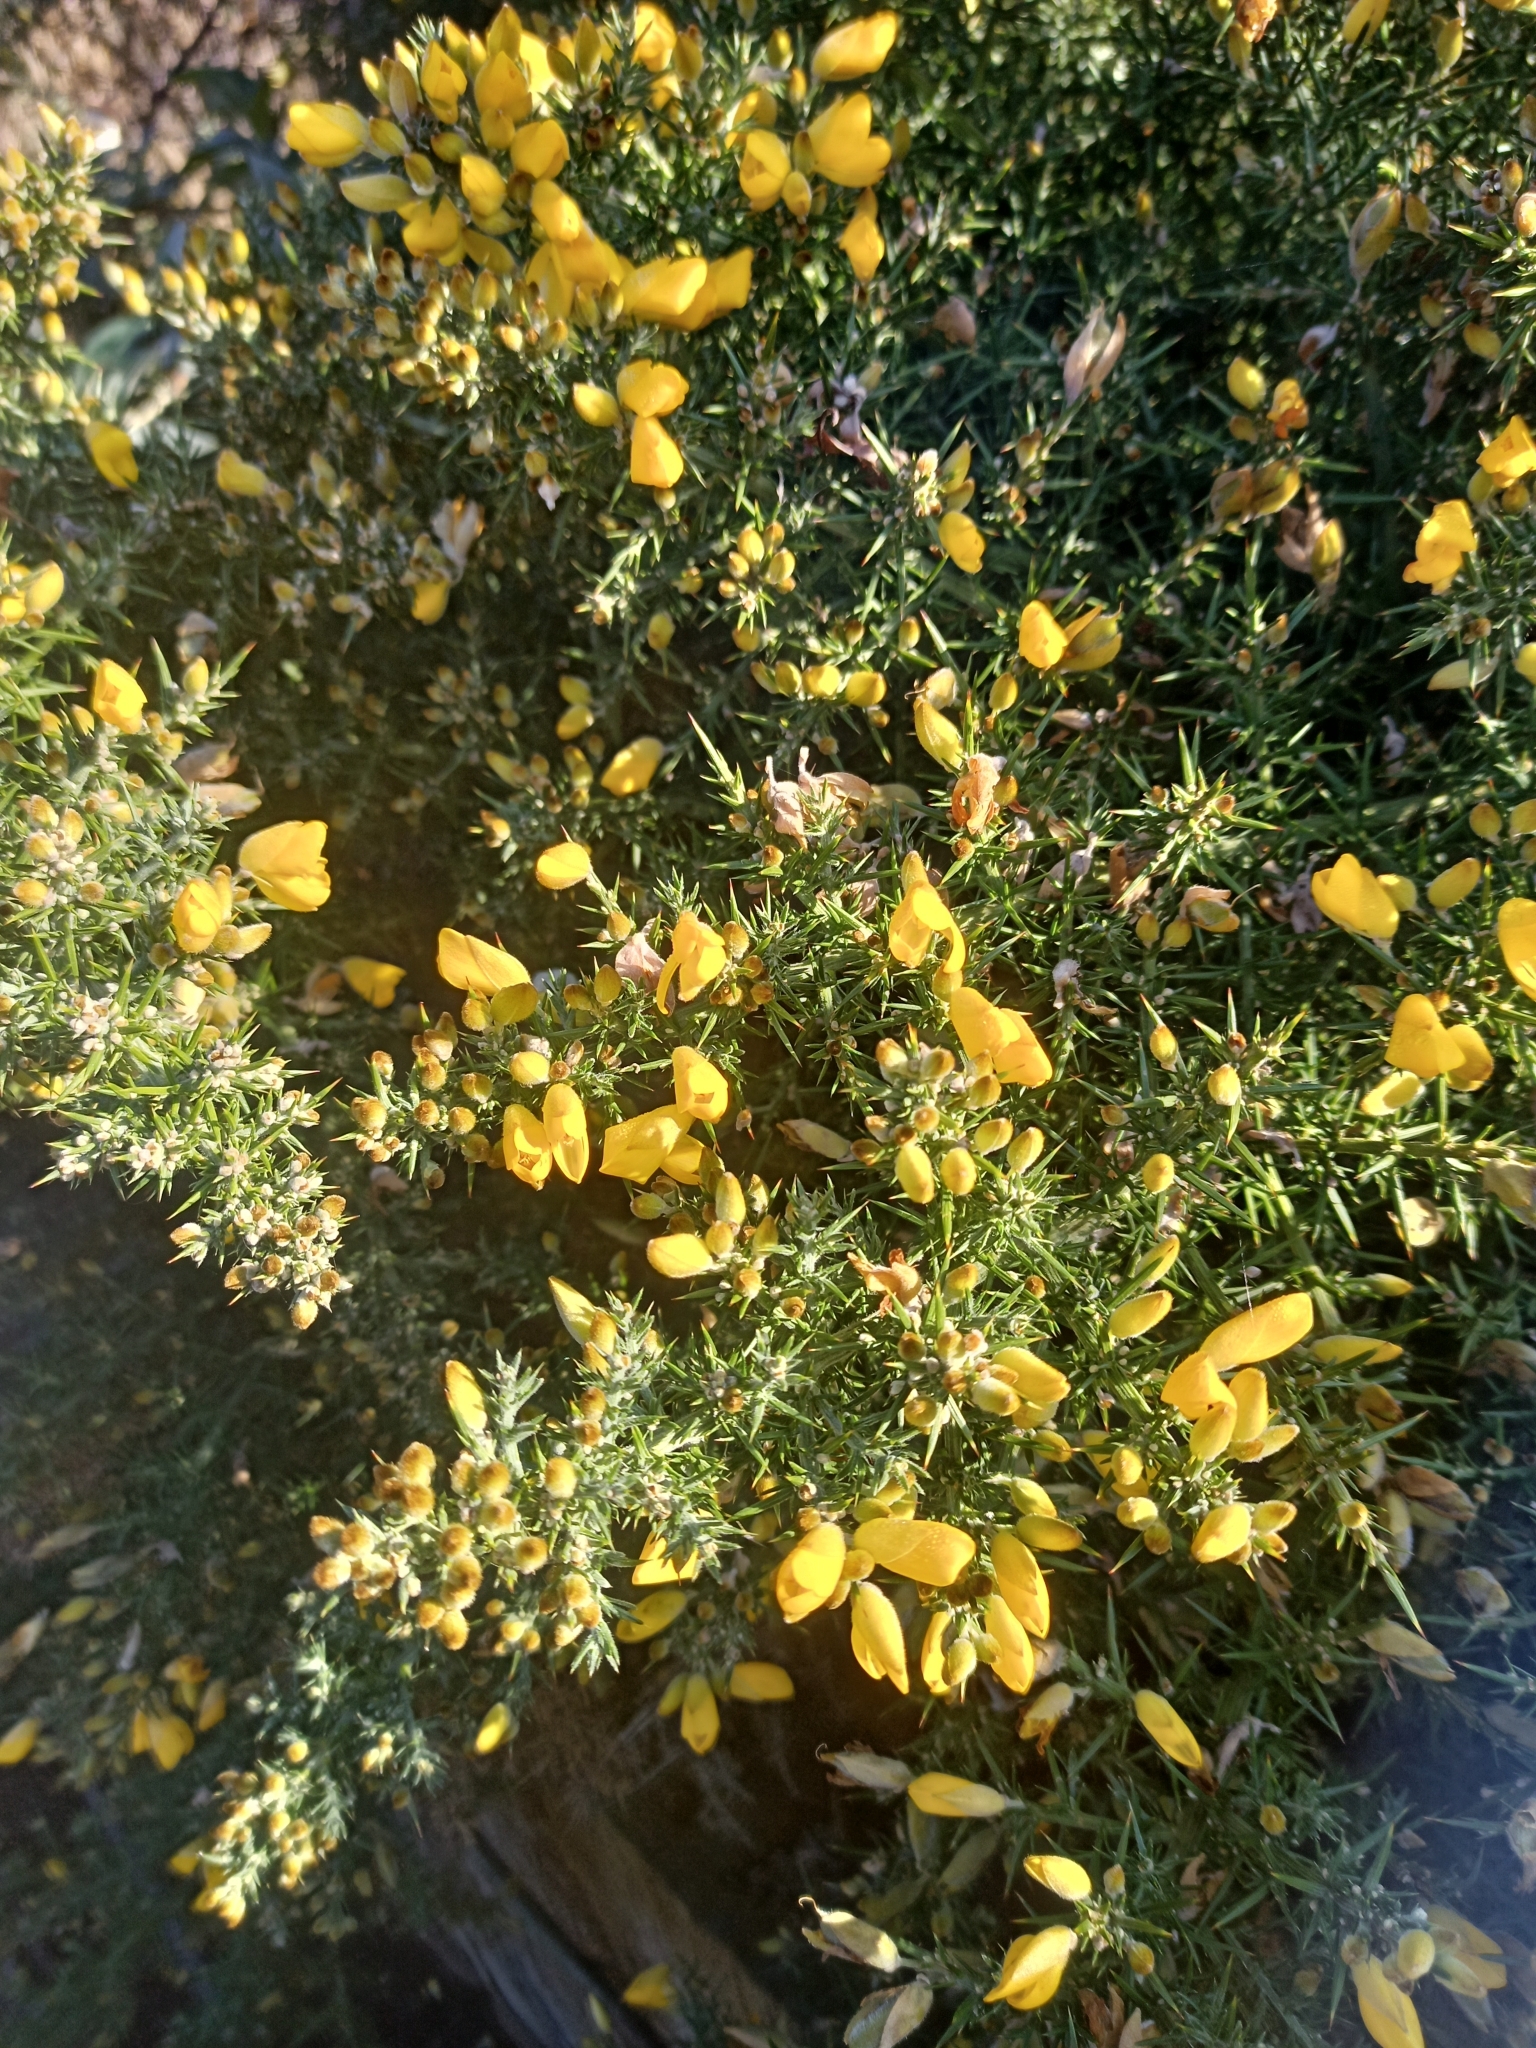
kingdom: Plantae
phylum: Tracheophyta
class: Magnoliopsida
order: Fabales
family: Fabaceae
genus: Ulex
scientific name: Ulex europaeus
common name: Common gorse
